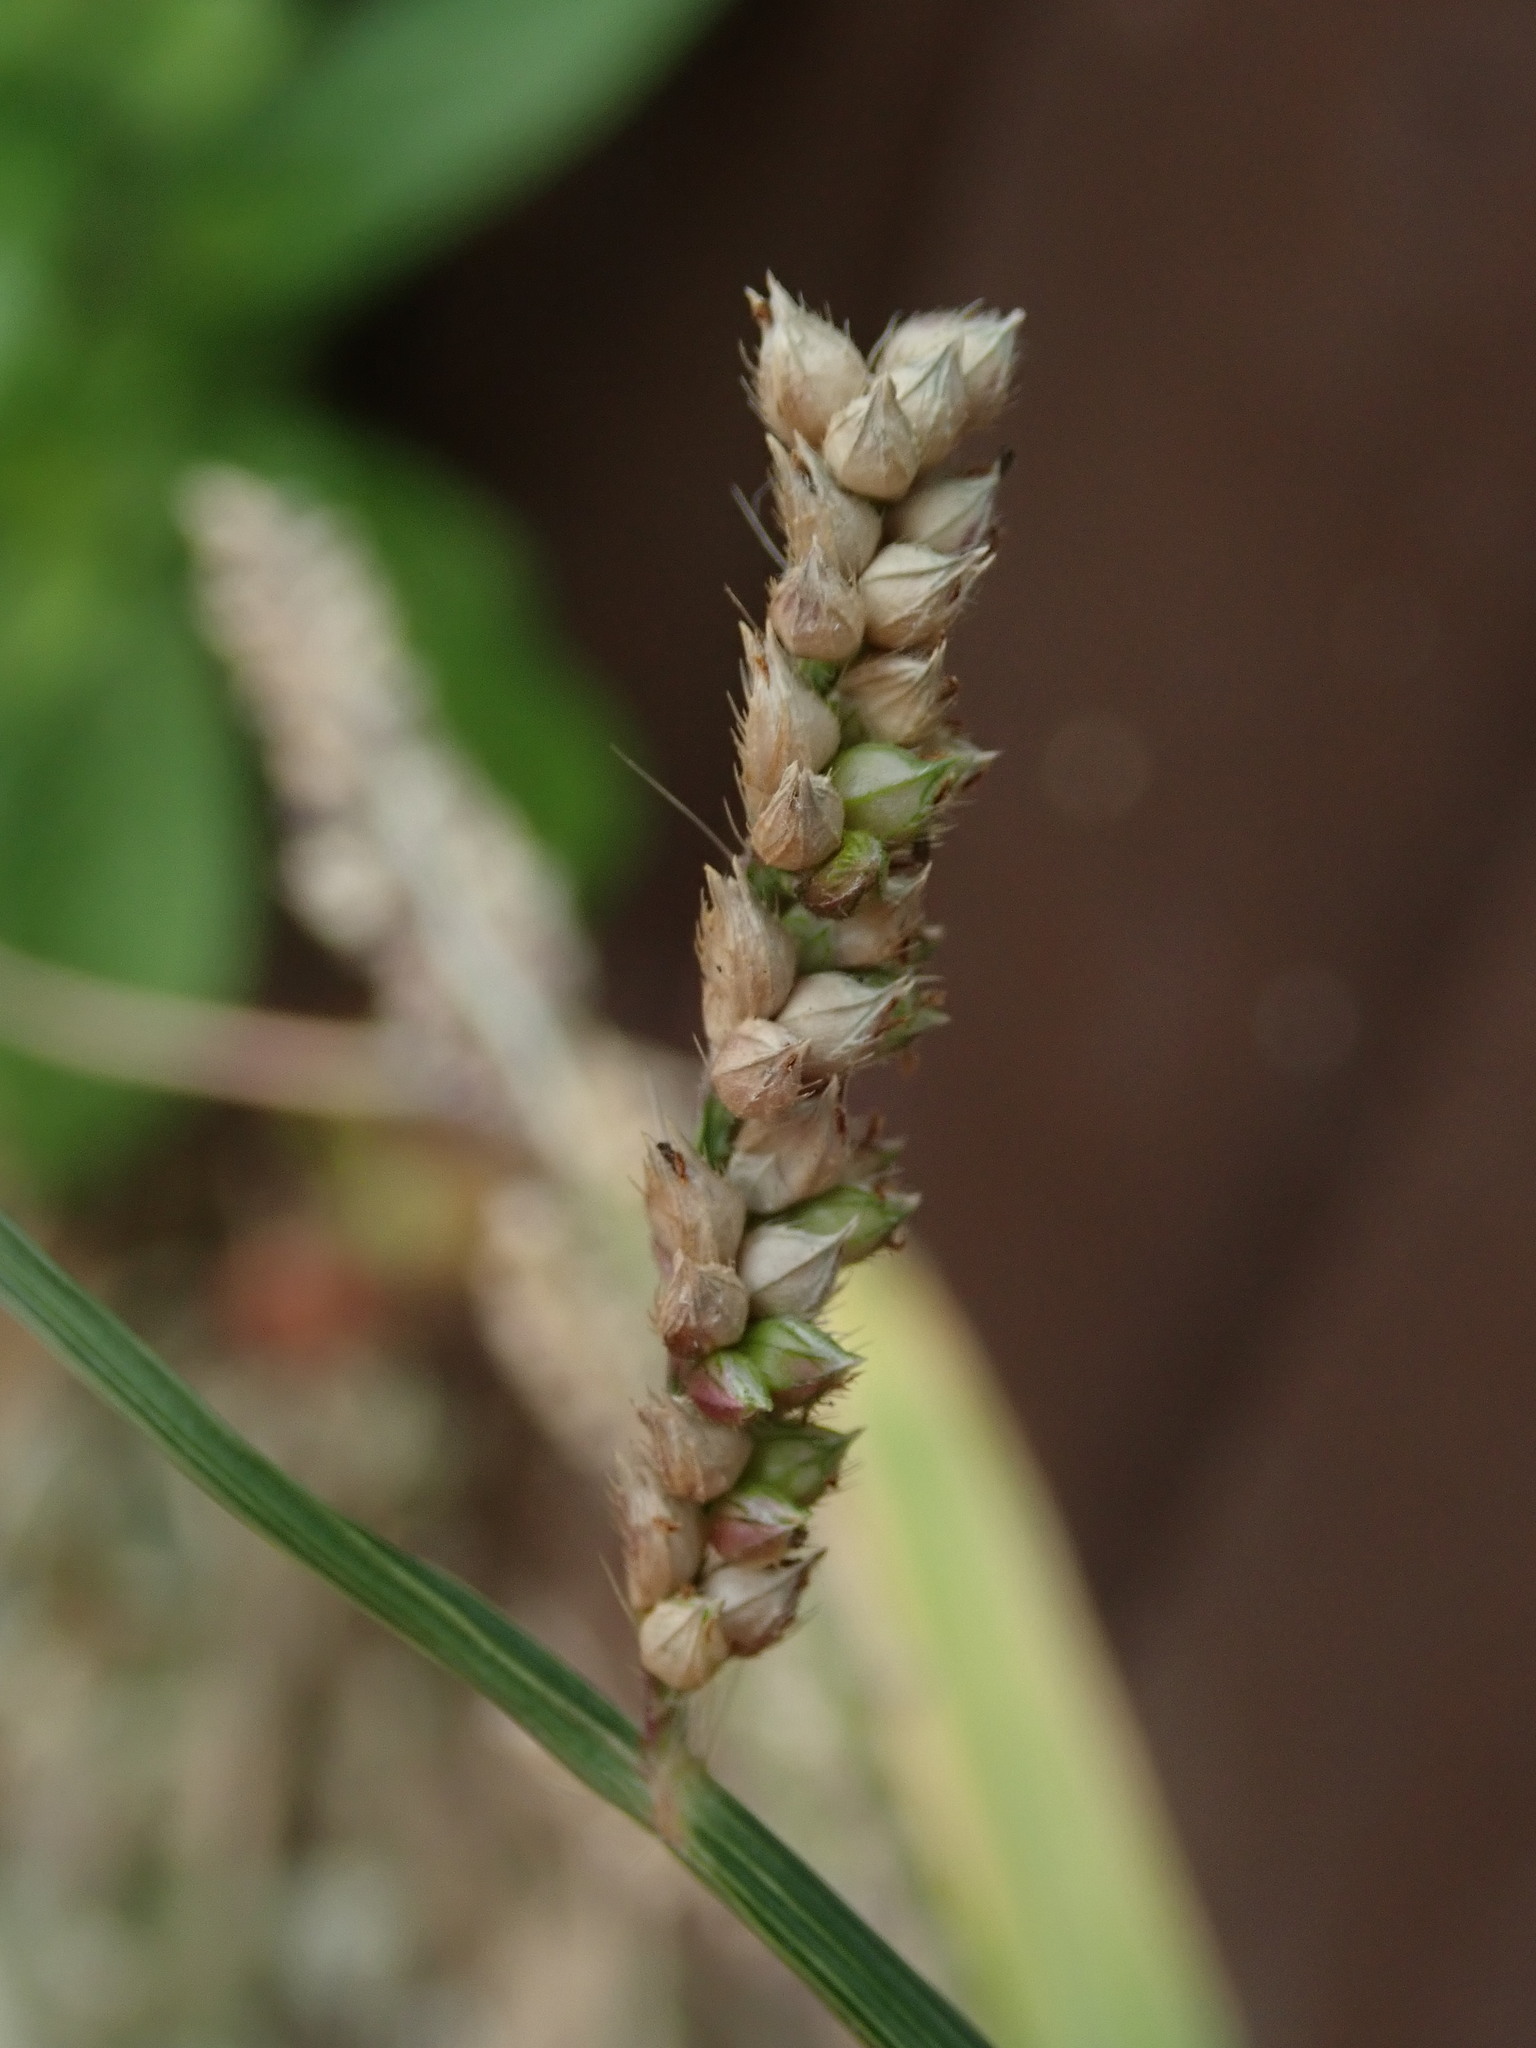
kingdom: Plantae
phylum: Tracheophyta
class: Liliopsida
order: Poales
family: Poaceae
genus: Echinochloa
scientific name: Echinochloa crus-galli
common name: Cockspur
